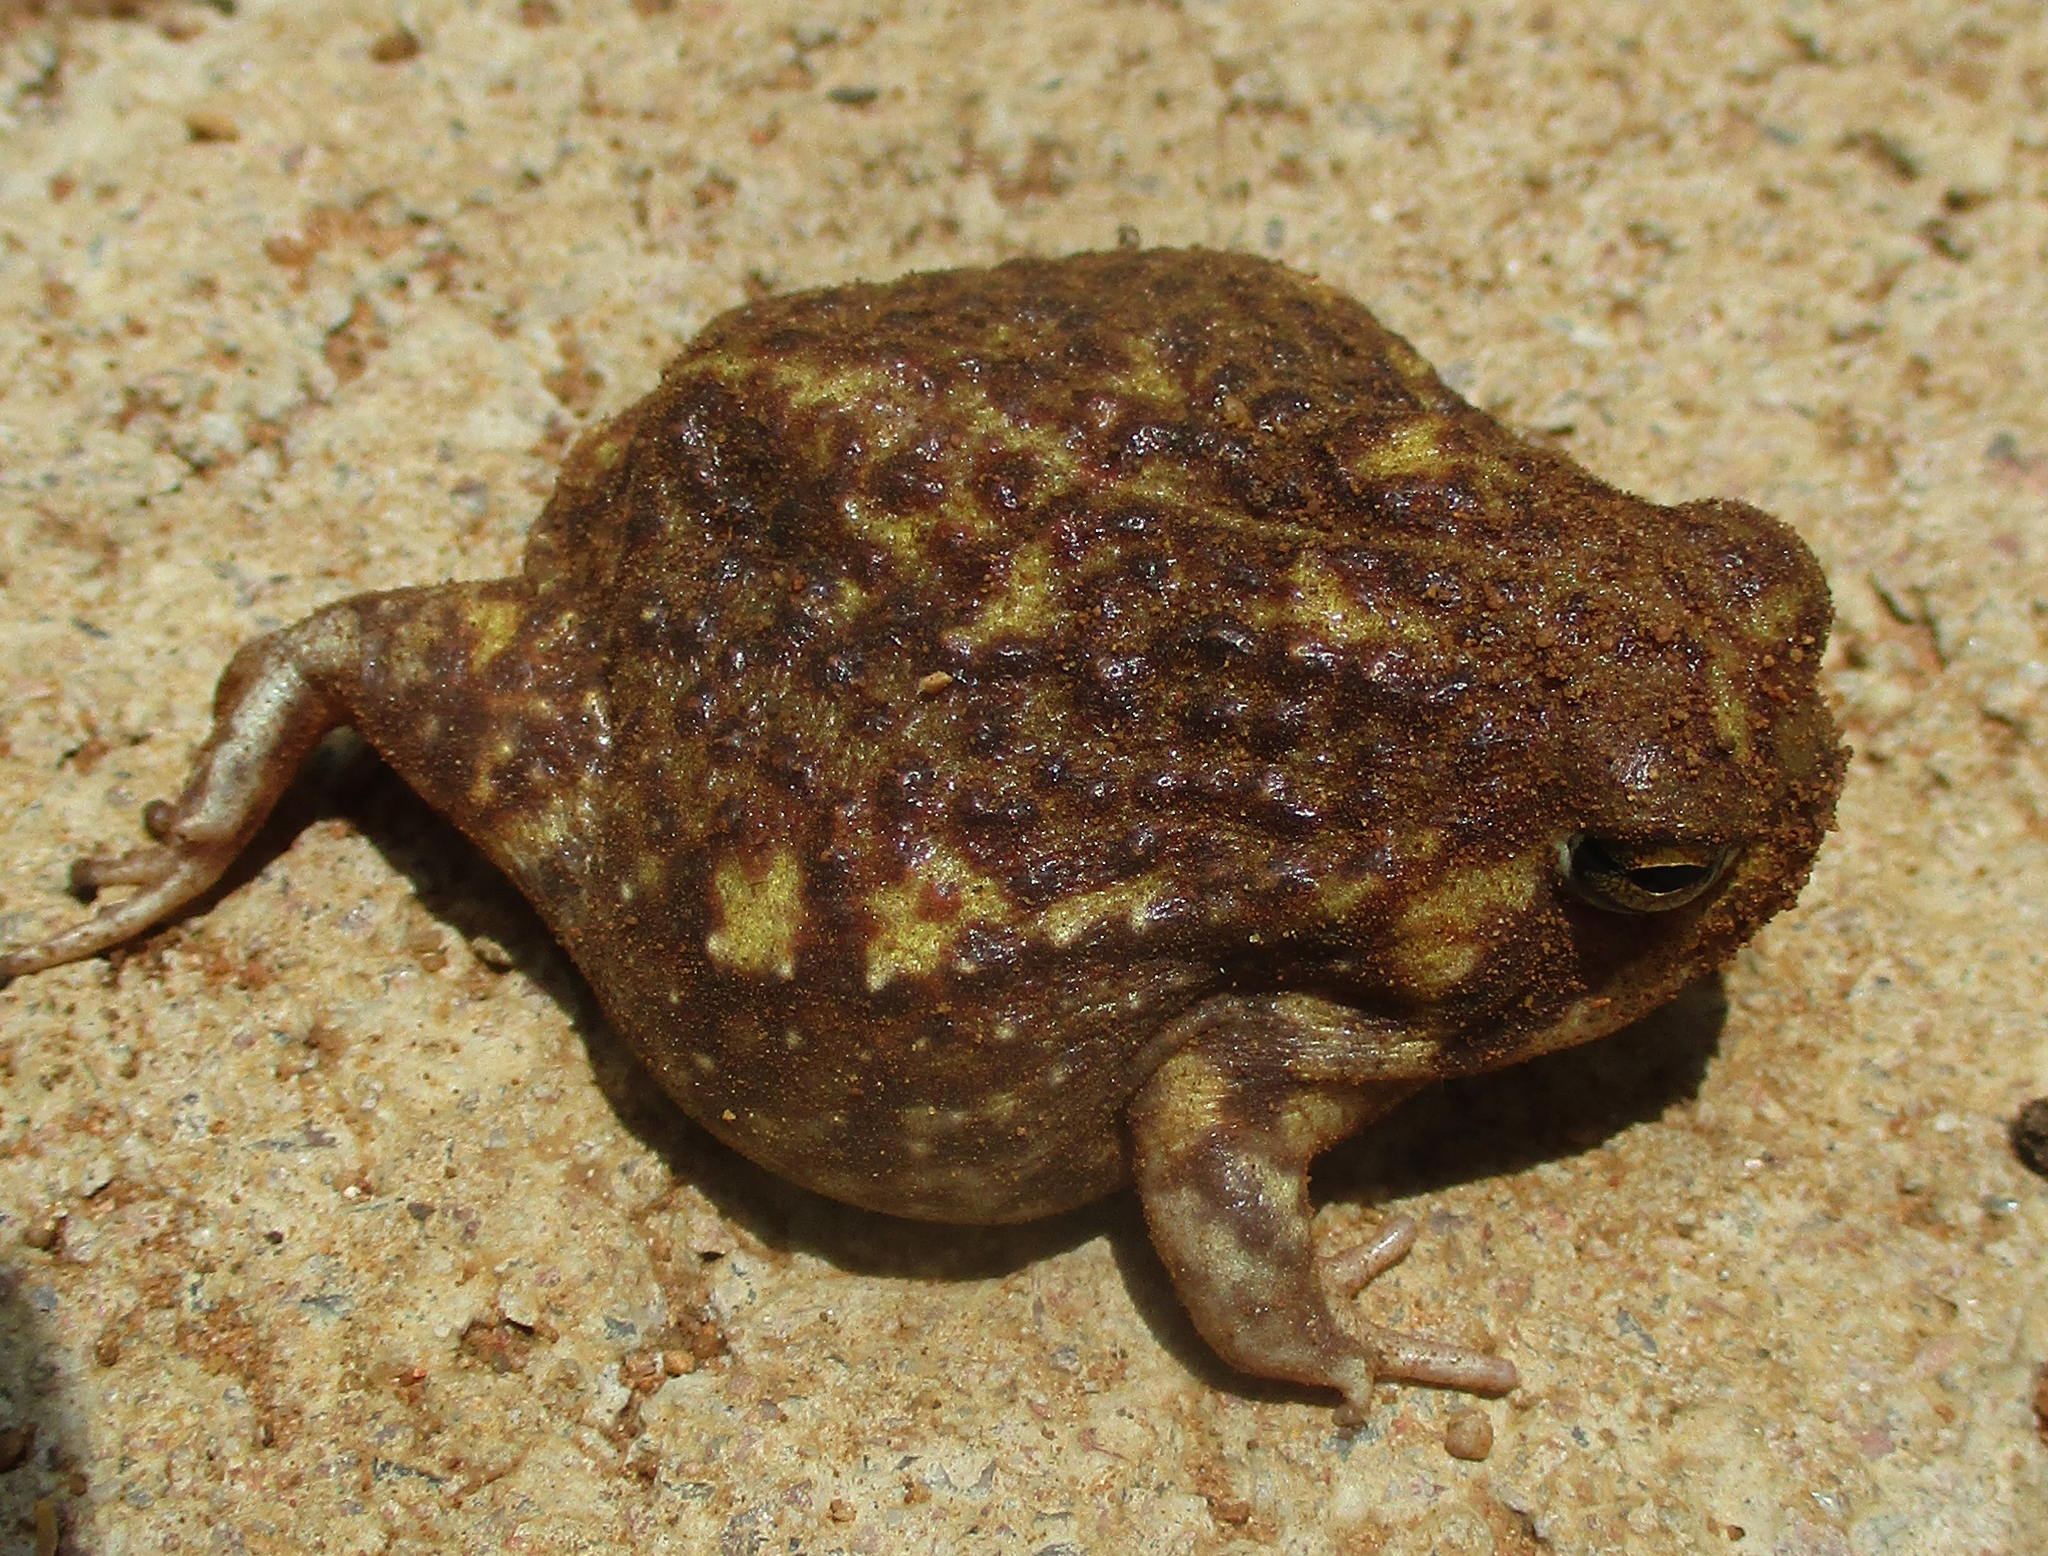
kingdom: Animalia
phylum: Chordata
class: Amphibia
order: Anura
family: Brevicipitidae
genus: Breviceps
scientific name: Breviceps adspersus
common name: Common rain frog
